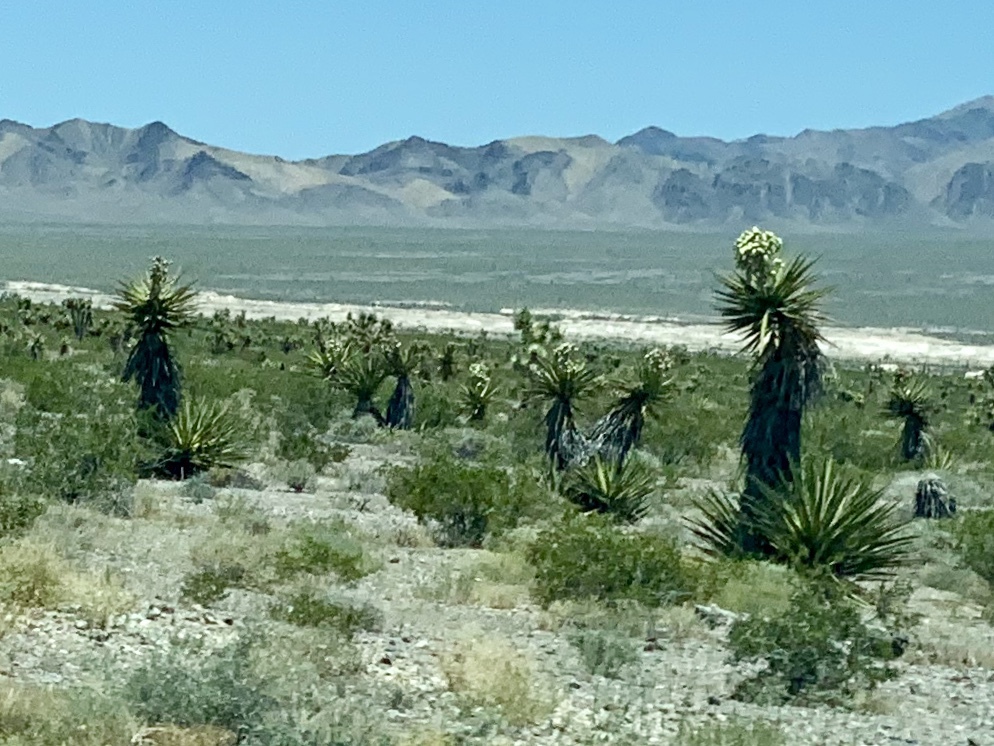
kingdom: Plantae
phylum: Tracheophyta
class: Liliopsida
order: Asparagales
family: Asparagaceae
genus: Yucca
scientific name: Yucca schidigera
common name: Mojave yucca
